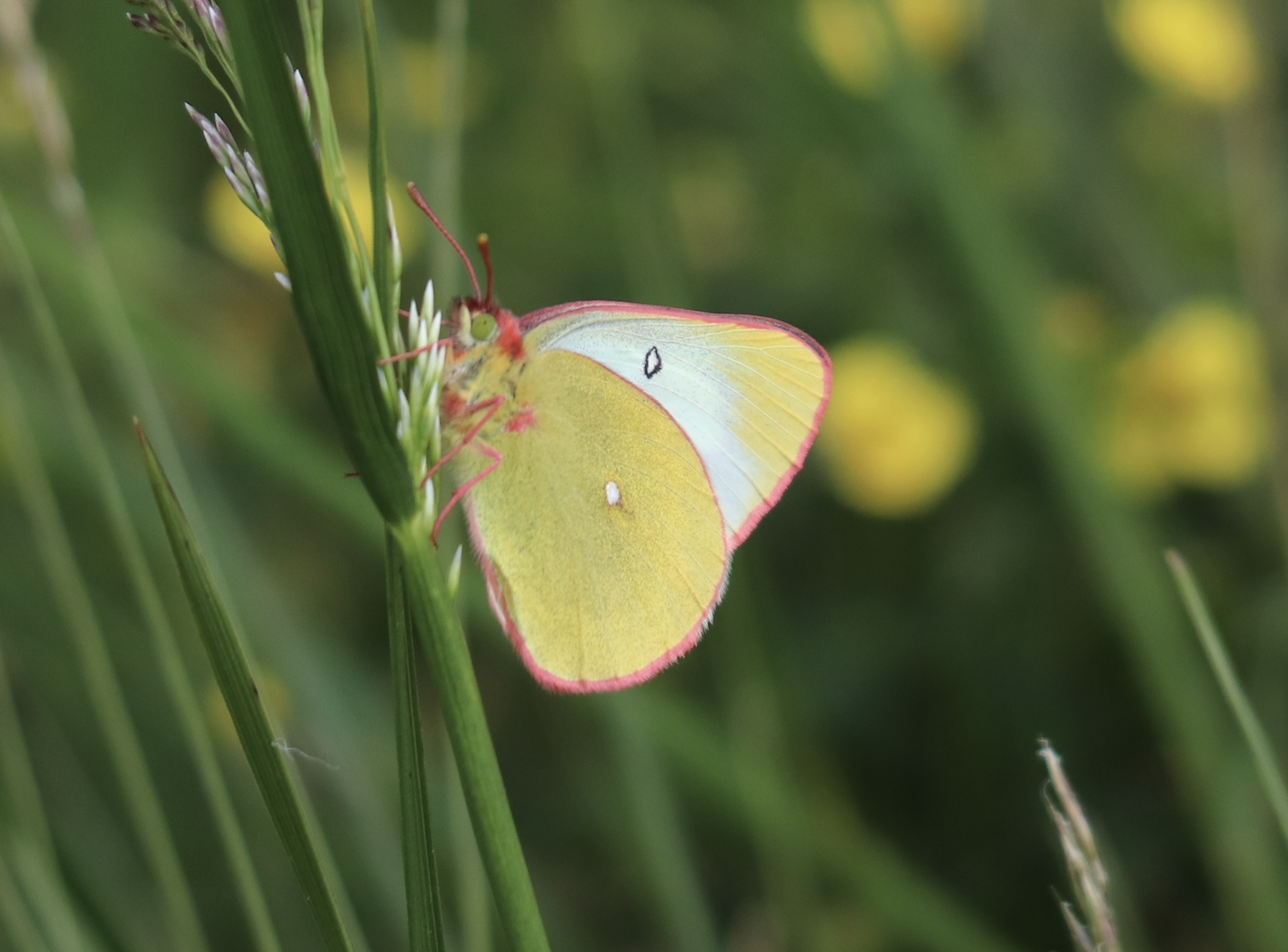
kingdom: Animalia
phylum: Arthropoda
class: Insecta
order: Lepidoptera
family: Pieridae
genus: Colias
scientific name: Colias palaeno
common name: Moorland clouded yellow
